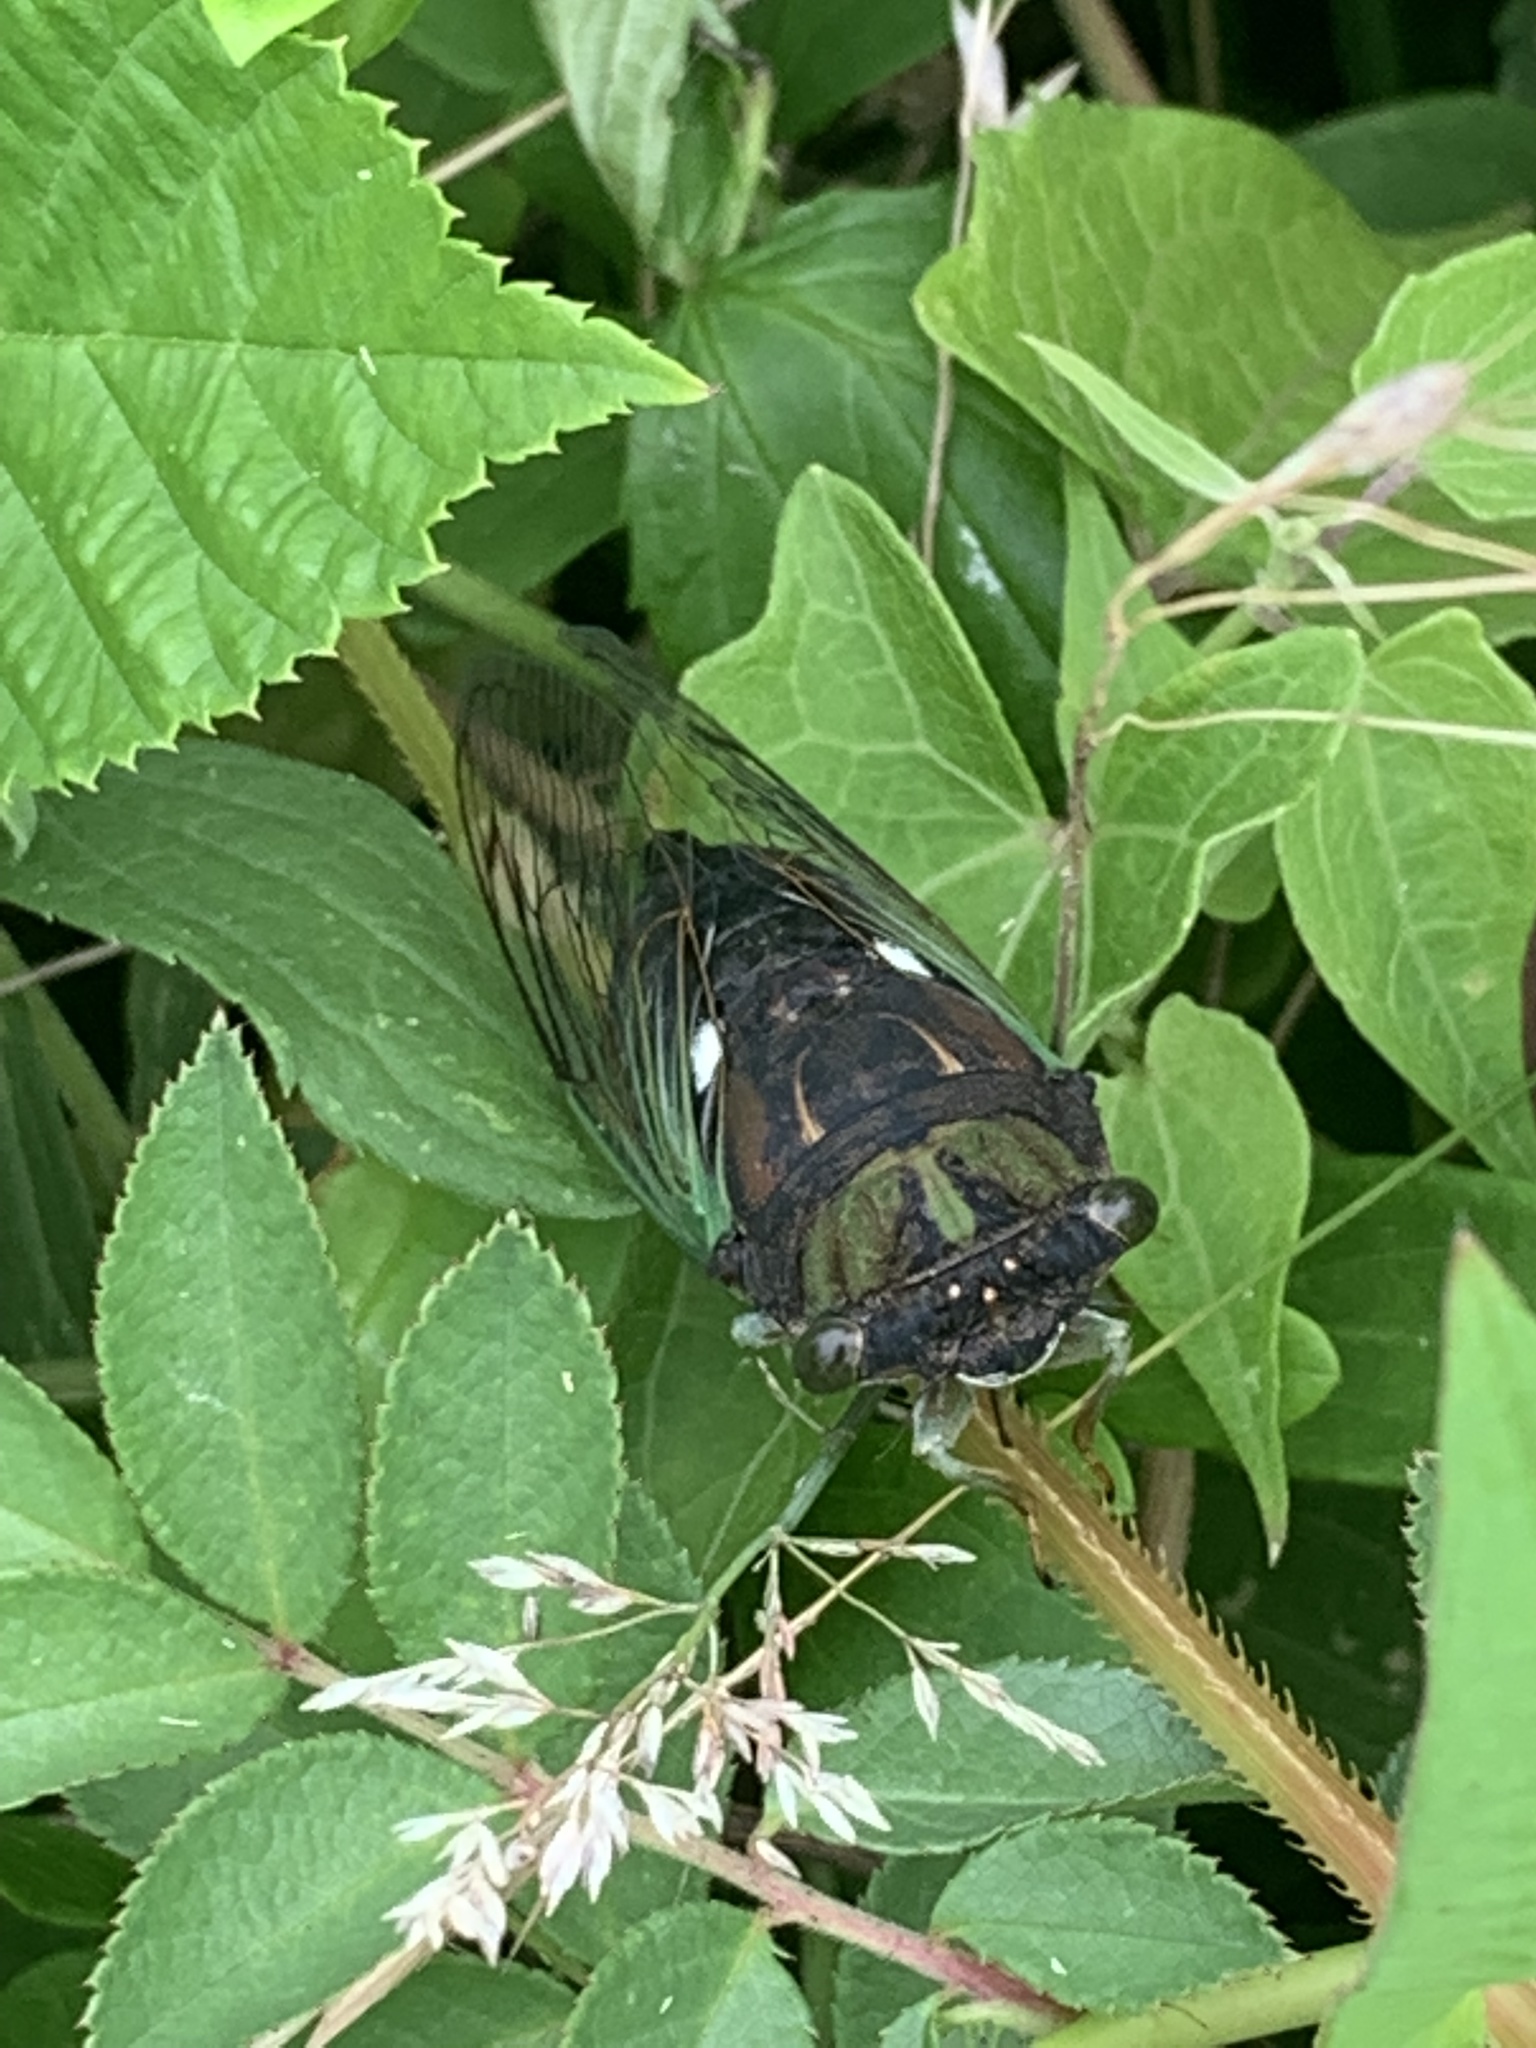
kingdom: Animalia
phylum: Arthropoda
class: Insecta
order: Hemiptera
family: Cicadidae
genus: Neotibicen
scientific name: Neotibicen tibicen
